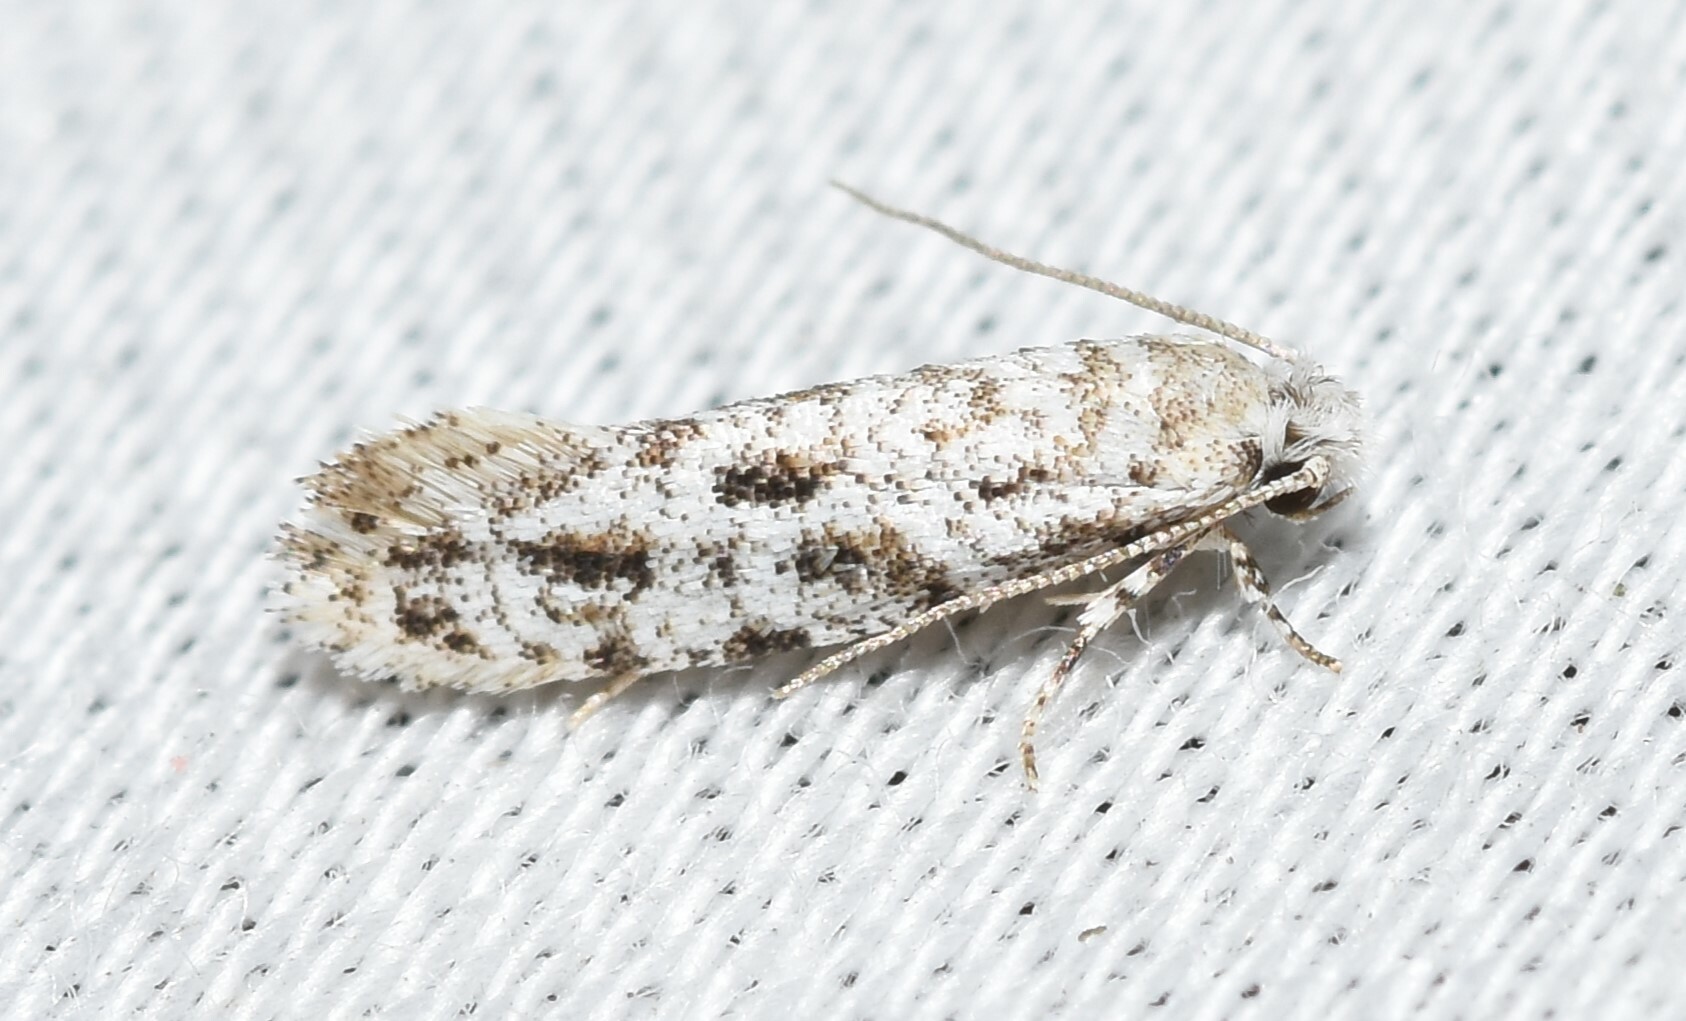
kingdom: Animalia
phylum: Arthropoda
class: Insecta
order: Lepidoptera
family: Meessiidae
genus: Diachorisia
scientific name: Diachorisia velatella
